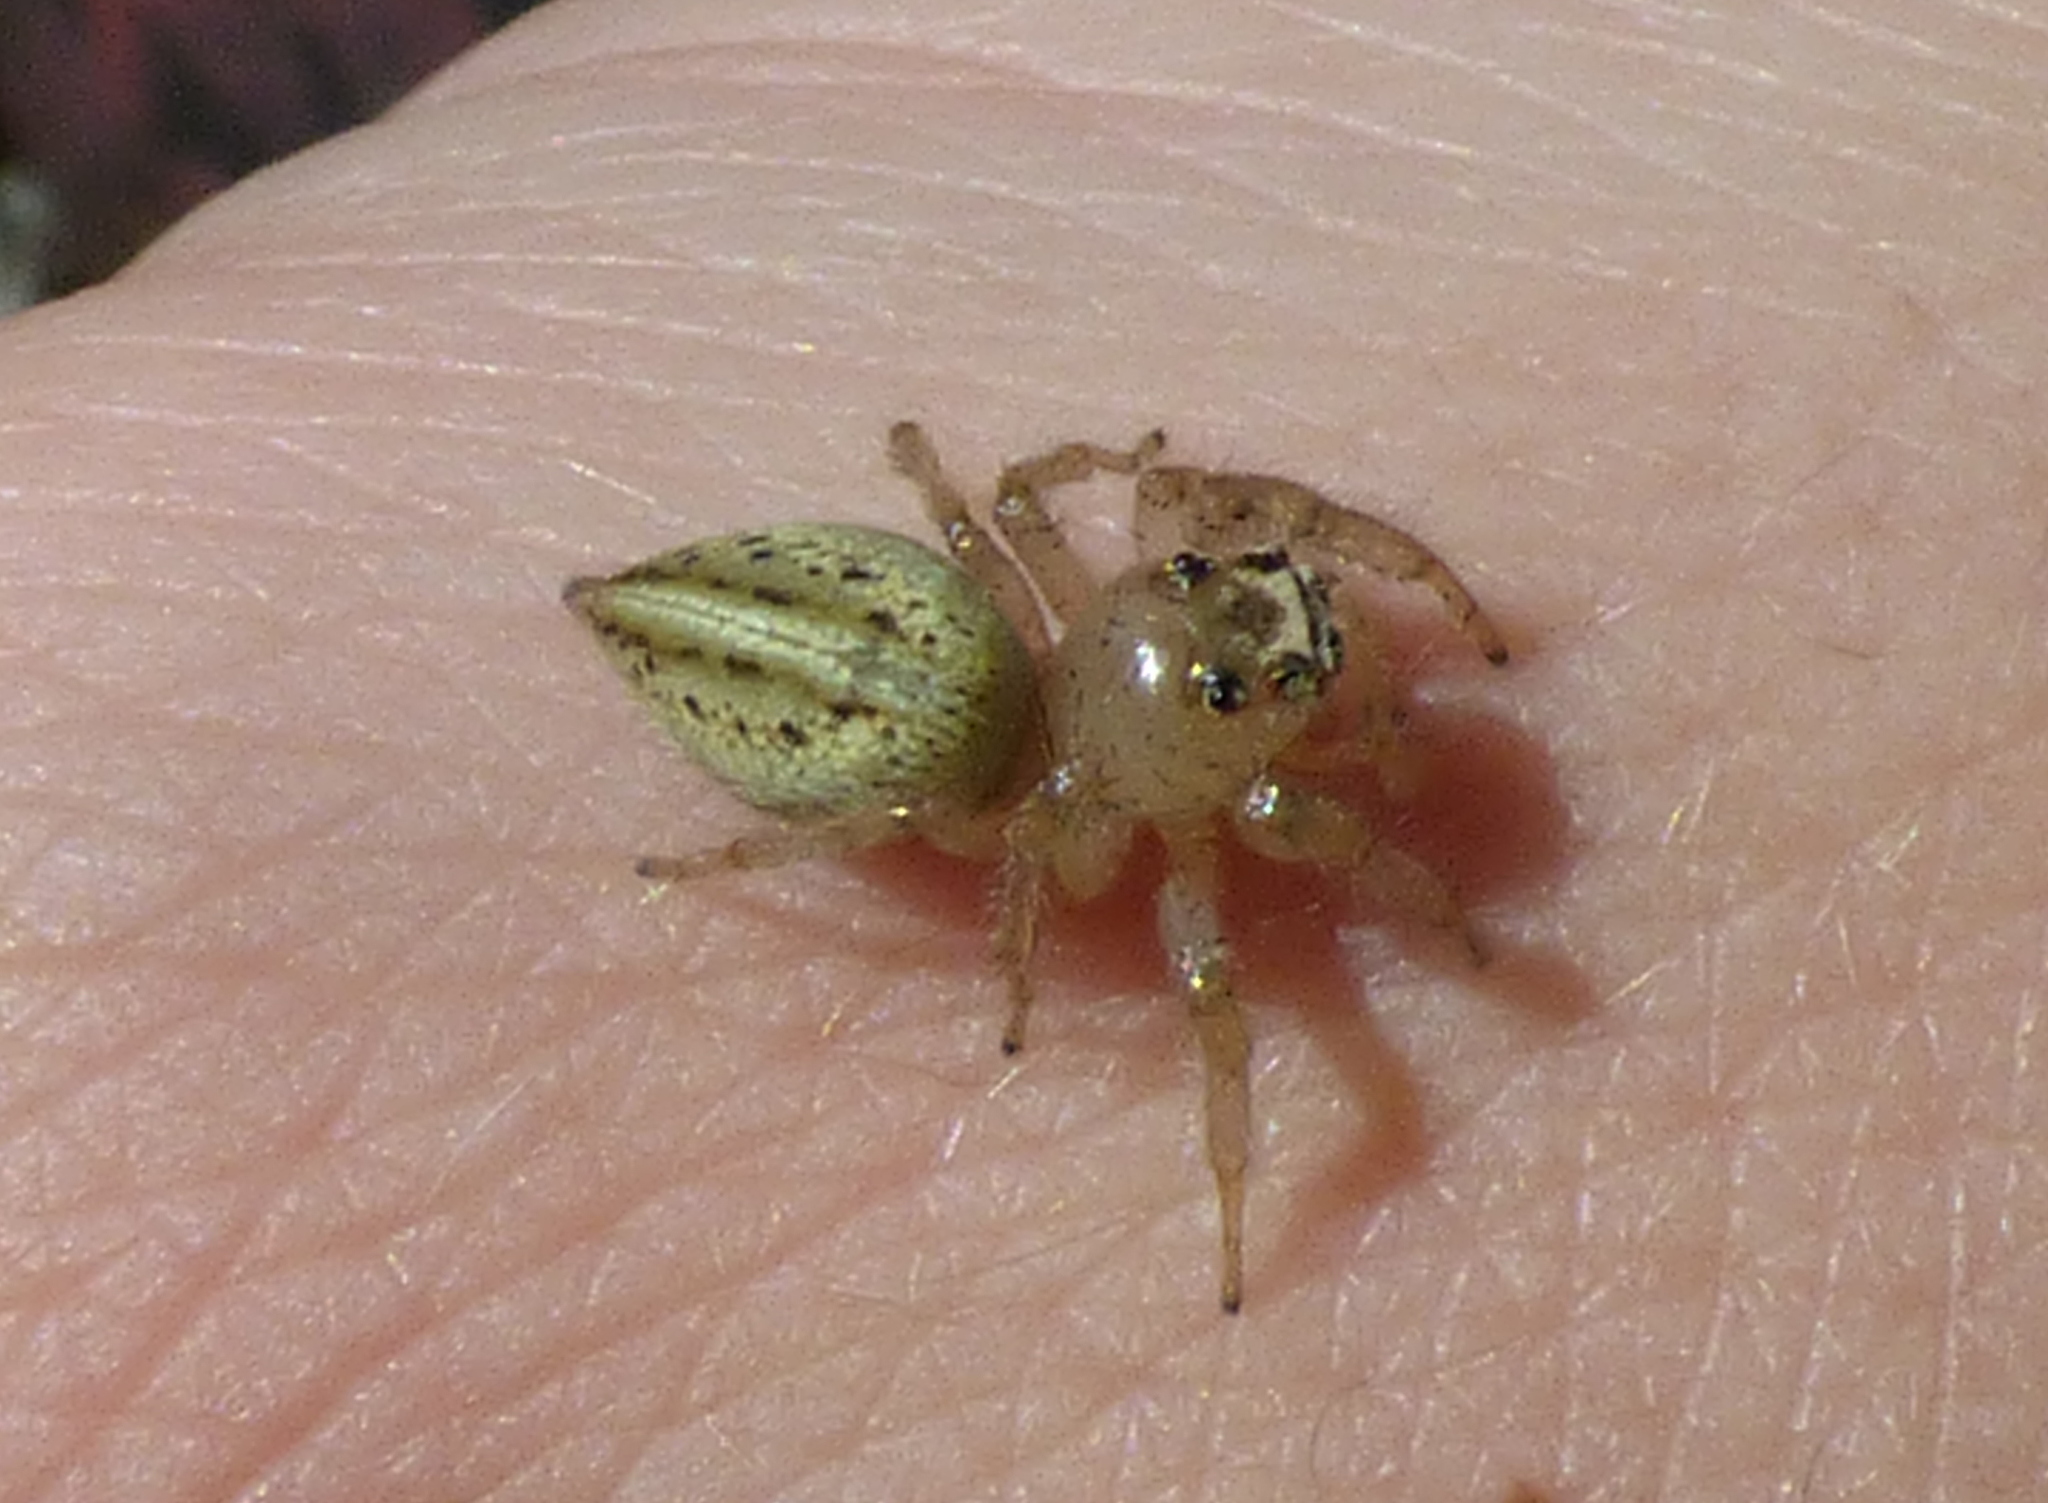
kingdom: Animalia
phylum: Arthropoda
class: Arachnida
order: Araneae
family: Salticidae
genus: Colonus
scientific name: Colonus sylvanus
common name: Jumping spiders
